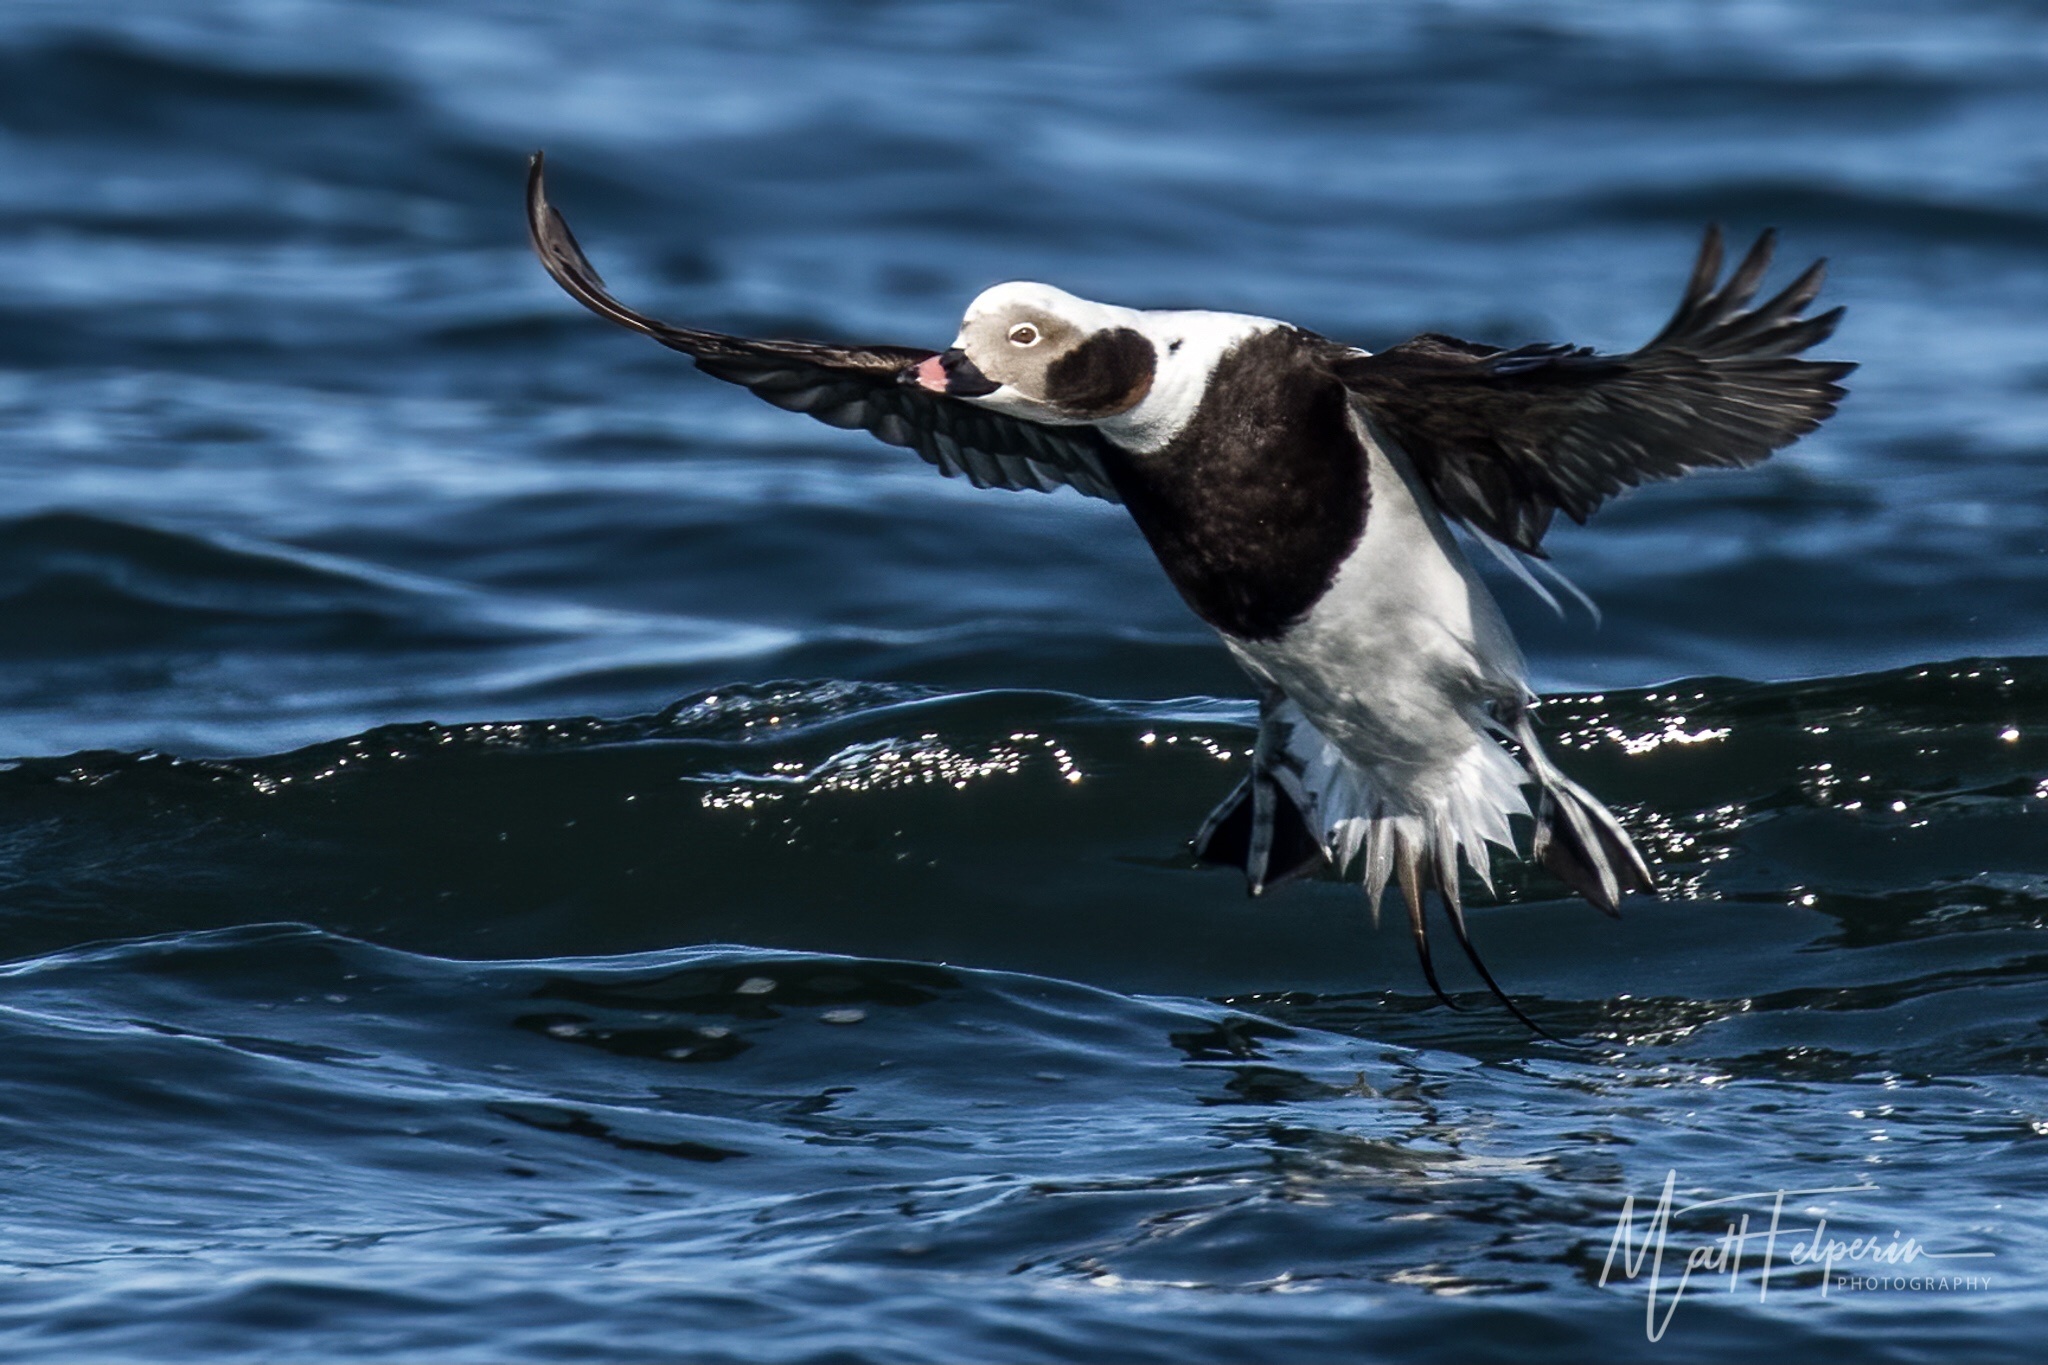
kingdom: Animalia
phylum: Chordata
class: Aves
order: Anseriformes
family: Anatidae
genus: Clangula
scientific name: Clangula hyemalis
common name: Long-tailed duck
